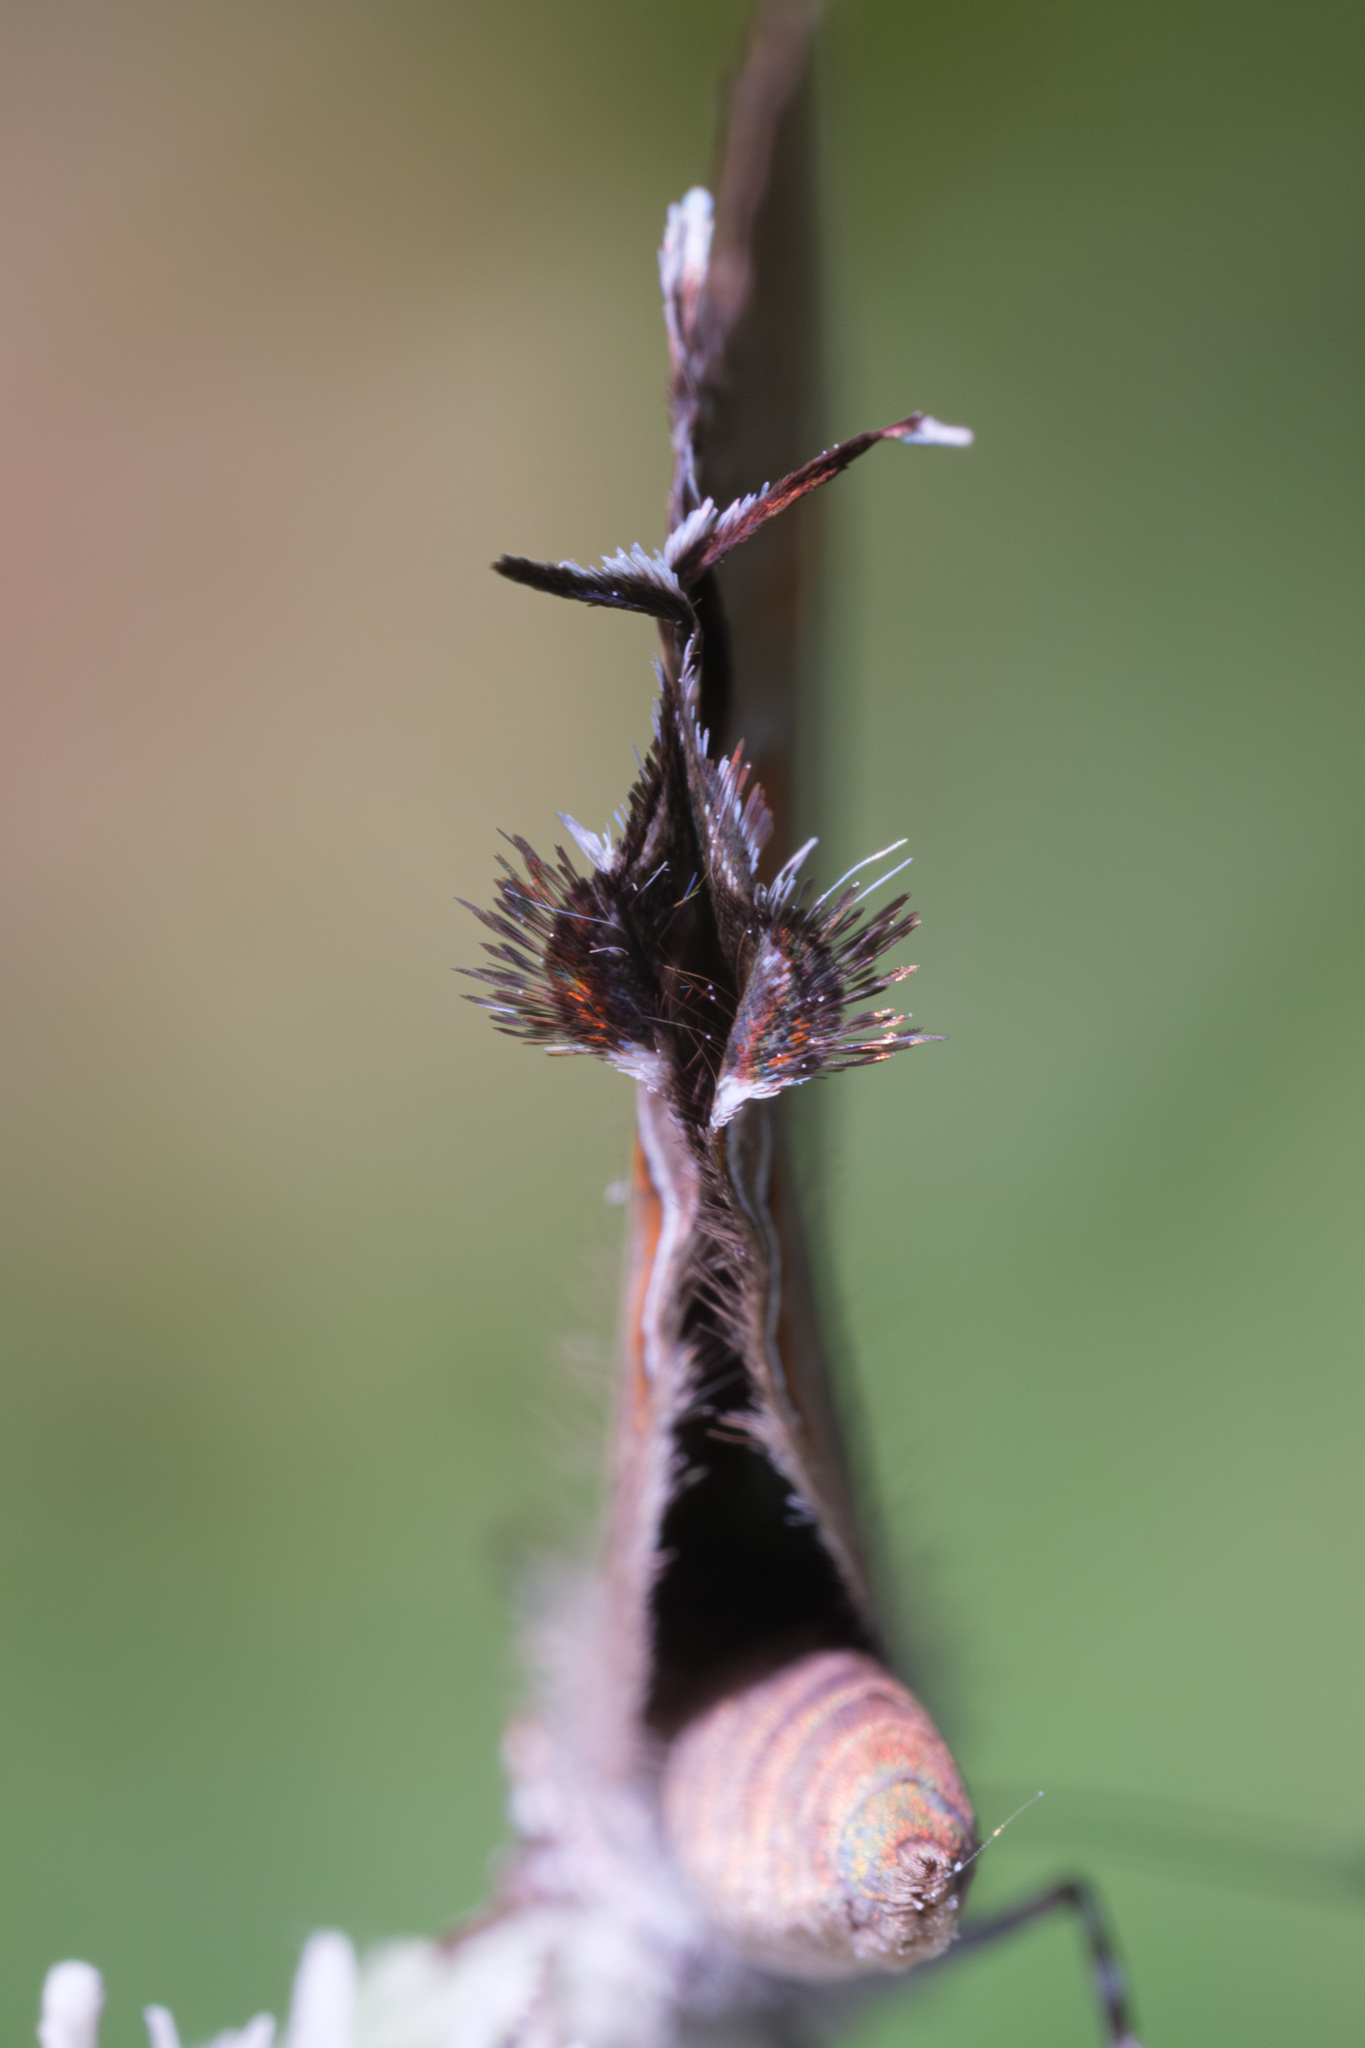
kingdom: Animalia
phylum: Arthropoda
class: Insecta
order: Lepidoptera
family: Lycaenidae
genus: Calycopis
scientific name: Calycopis cecrops
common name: Red-banded hairstreak
